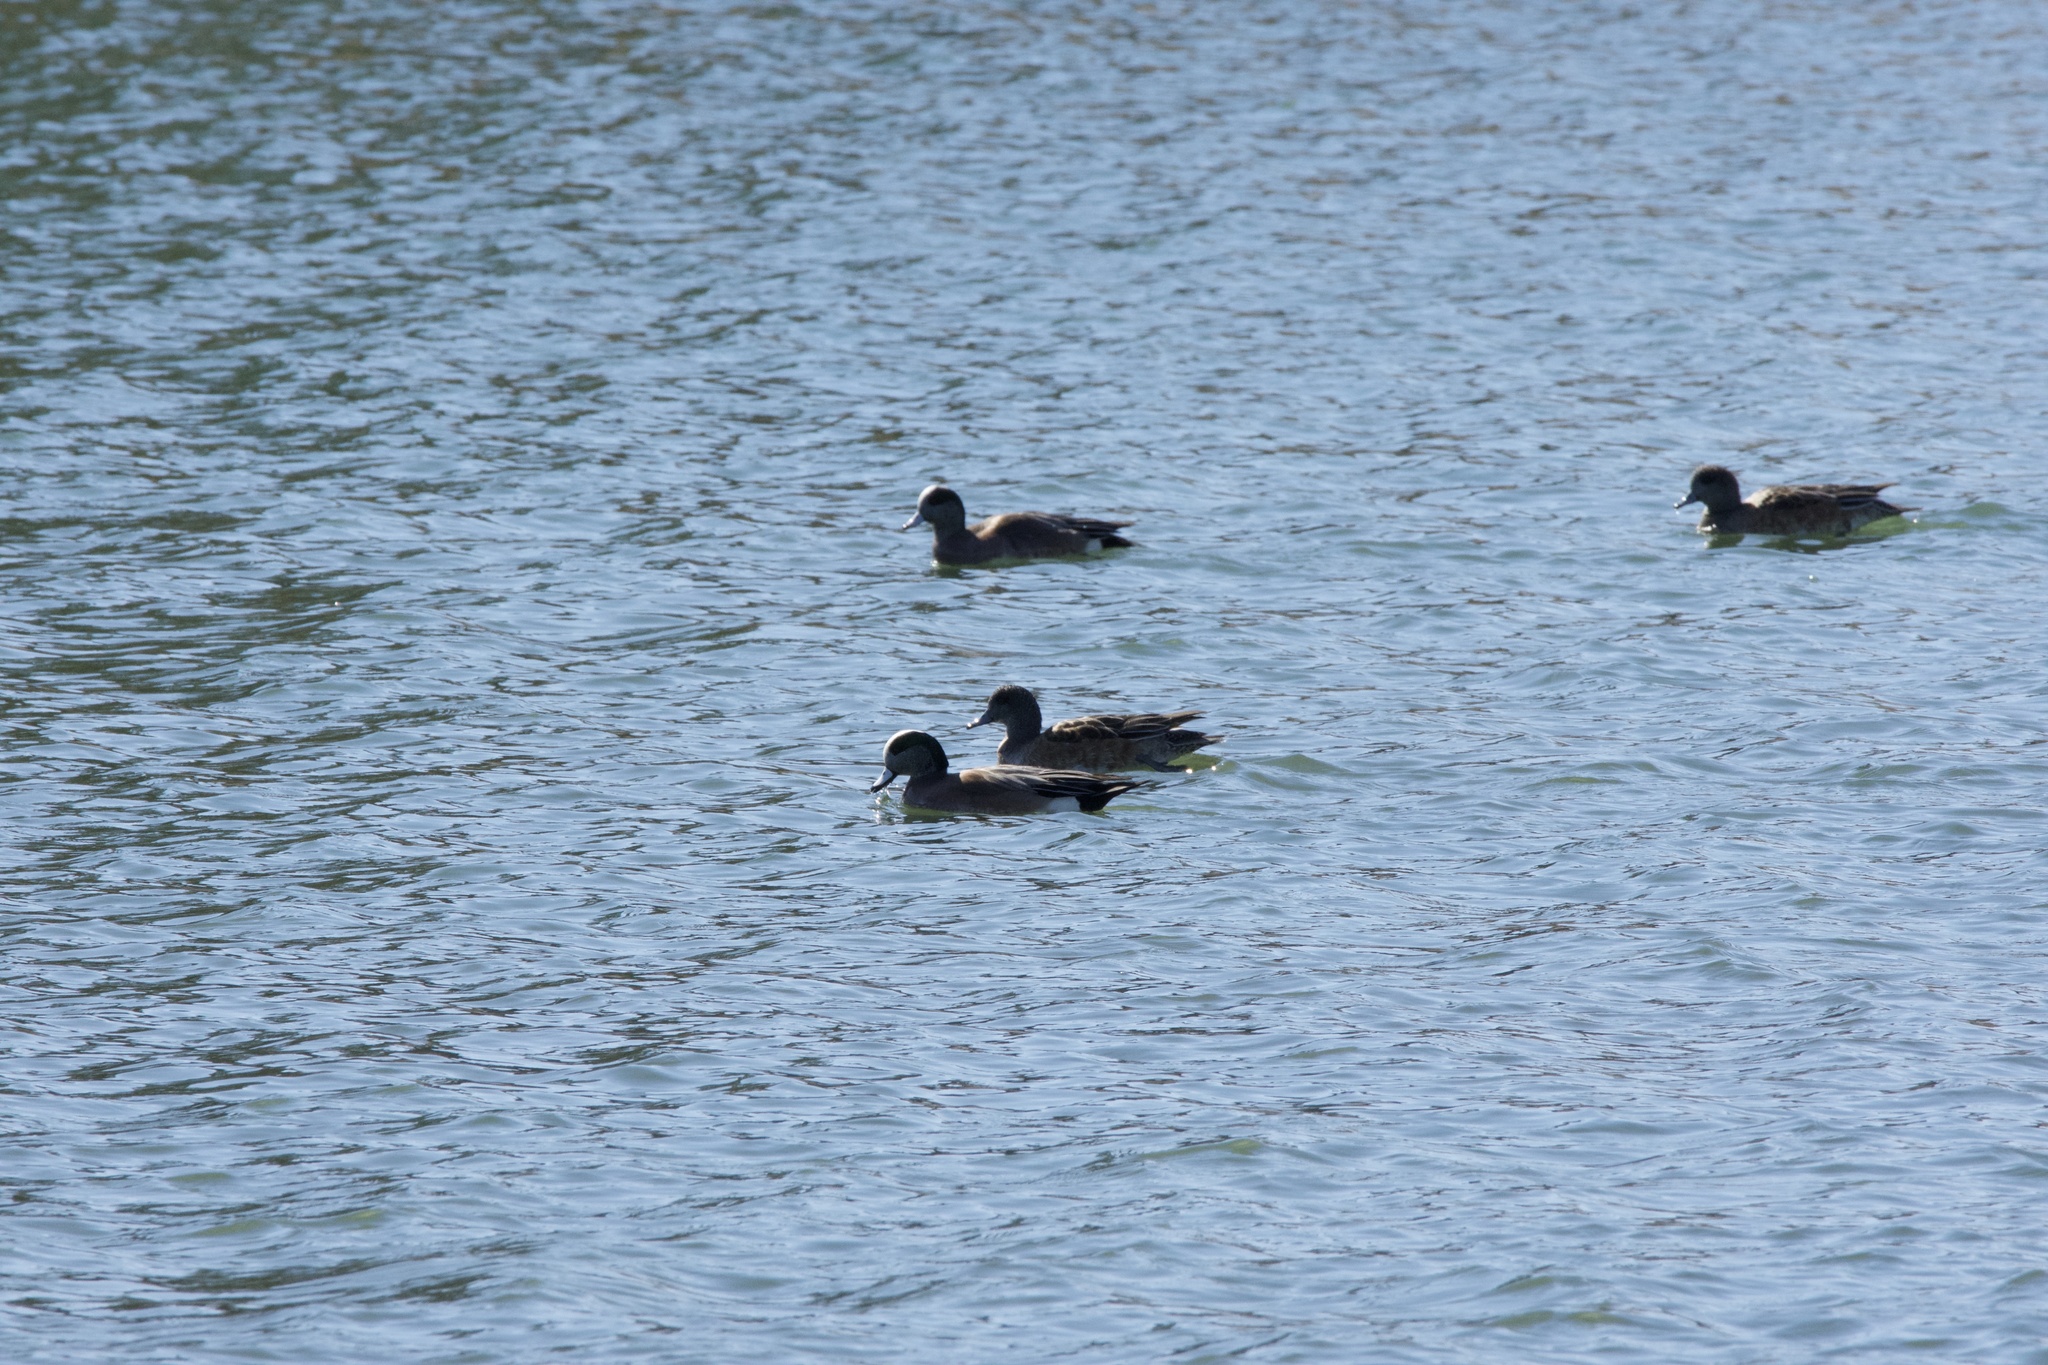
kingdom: Animalia
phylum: Chordata
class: Aves
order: Anseriformes
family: Anatidae
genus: Mareca
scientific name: Mareca americana
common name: American wigeon
